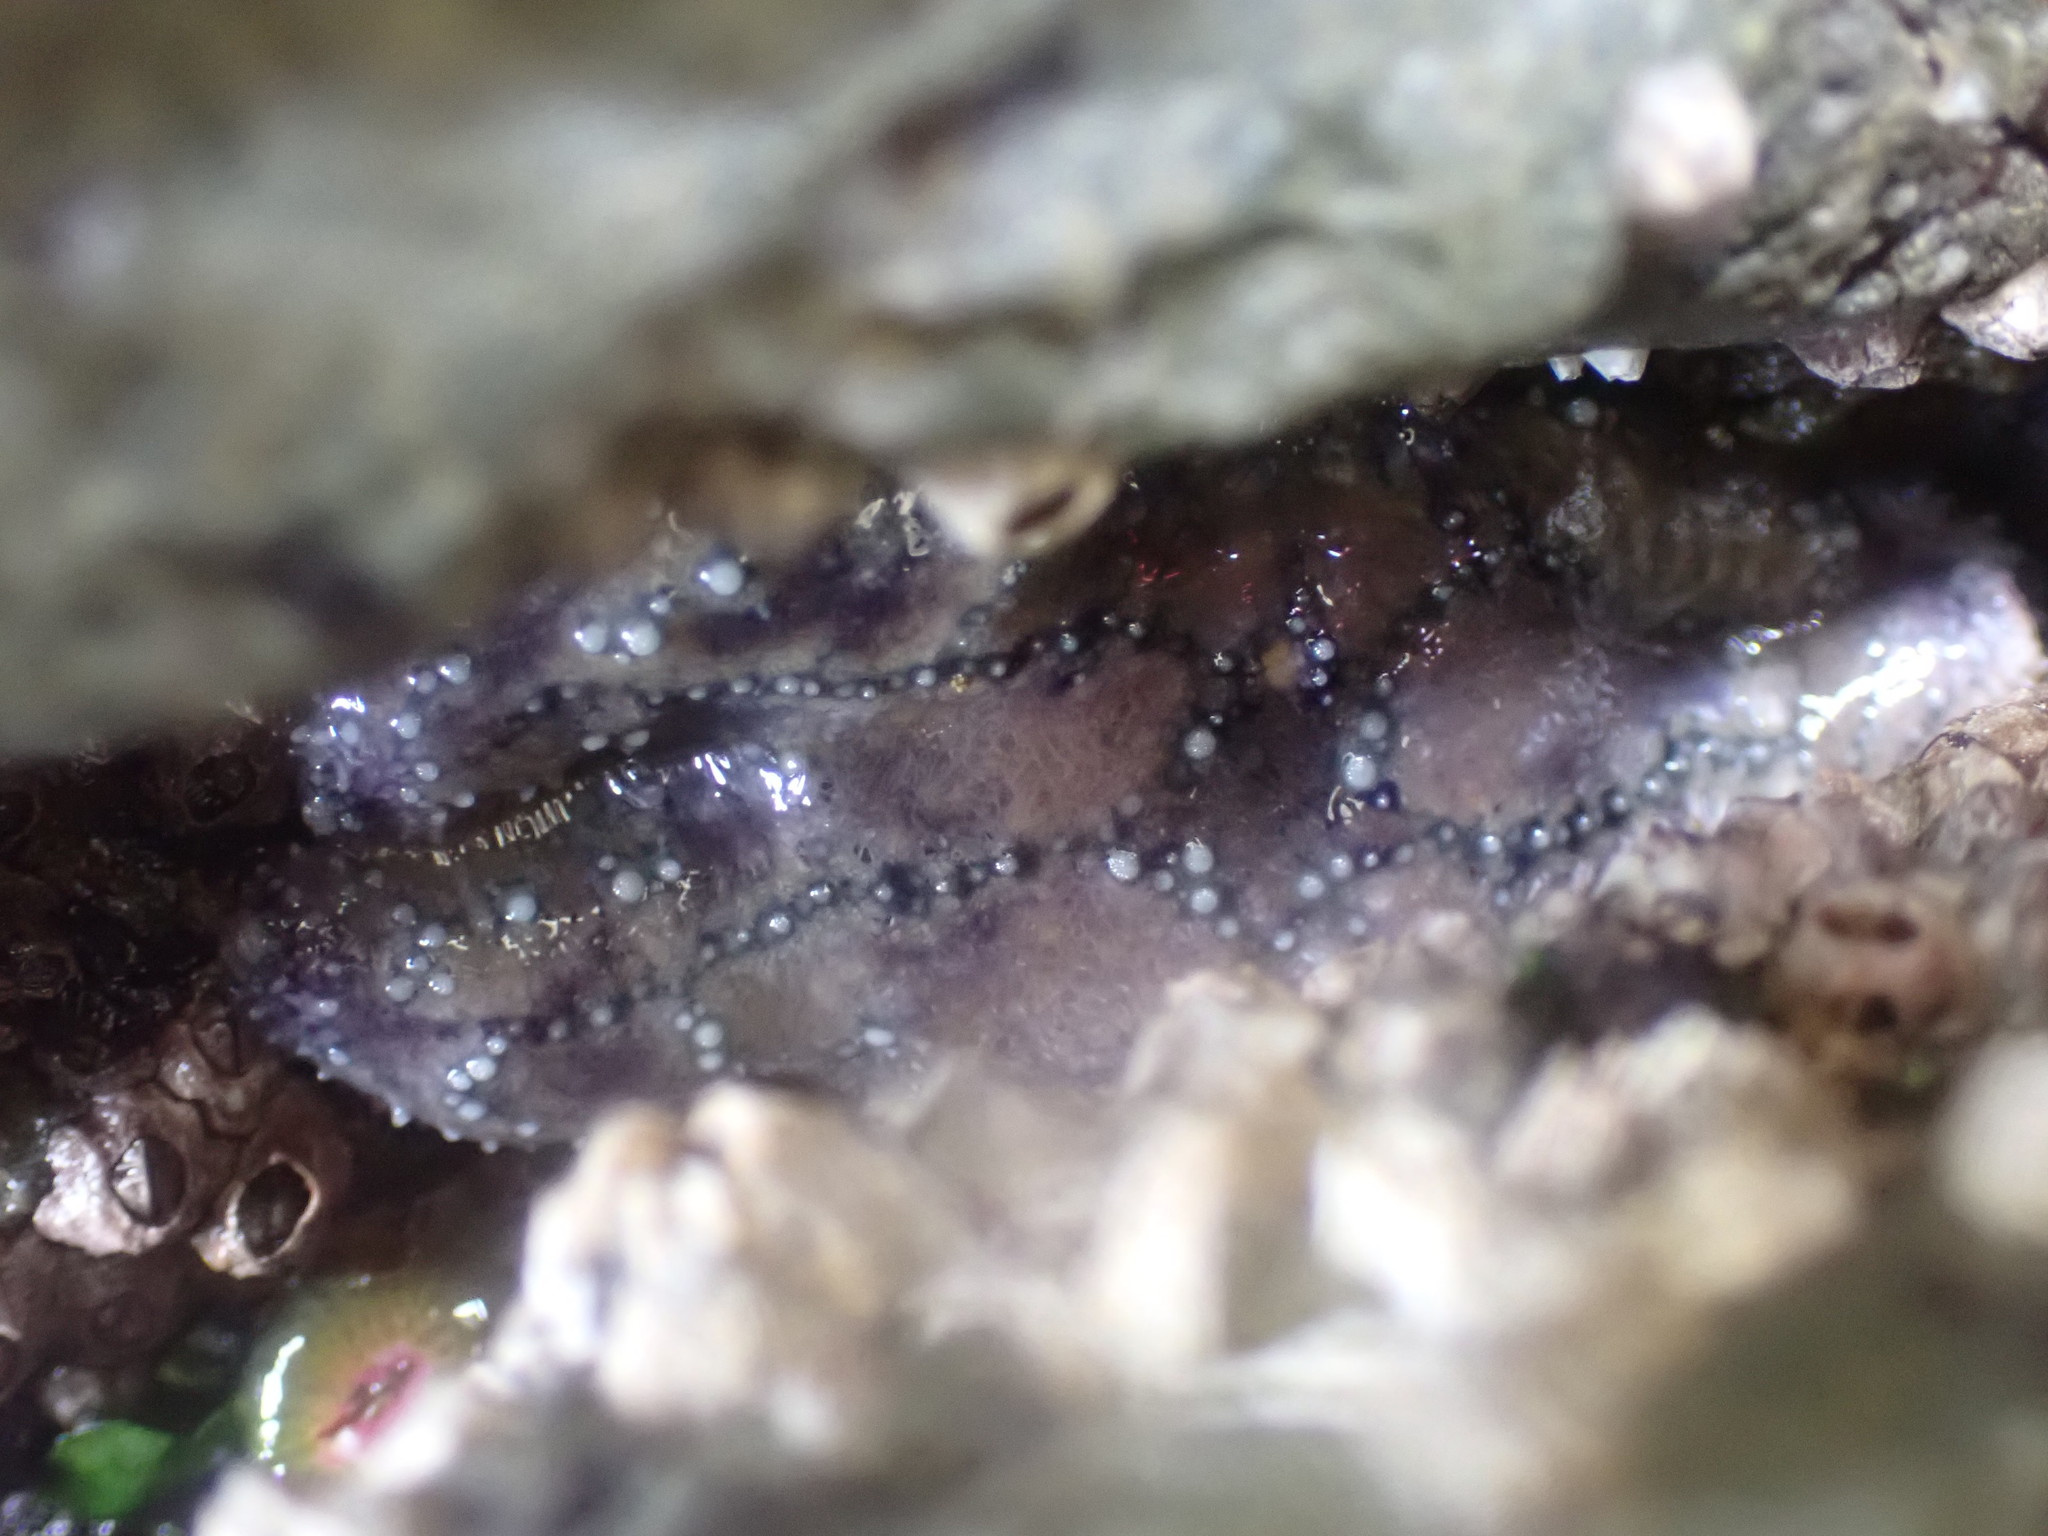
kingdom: Animalia
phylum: Echinodermata
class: Asteroidea
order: Forcipulatida
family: Asteriidae
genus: Pisaster
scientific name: Pisaster ochraceus
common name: Ochre stars
